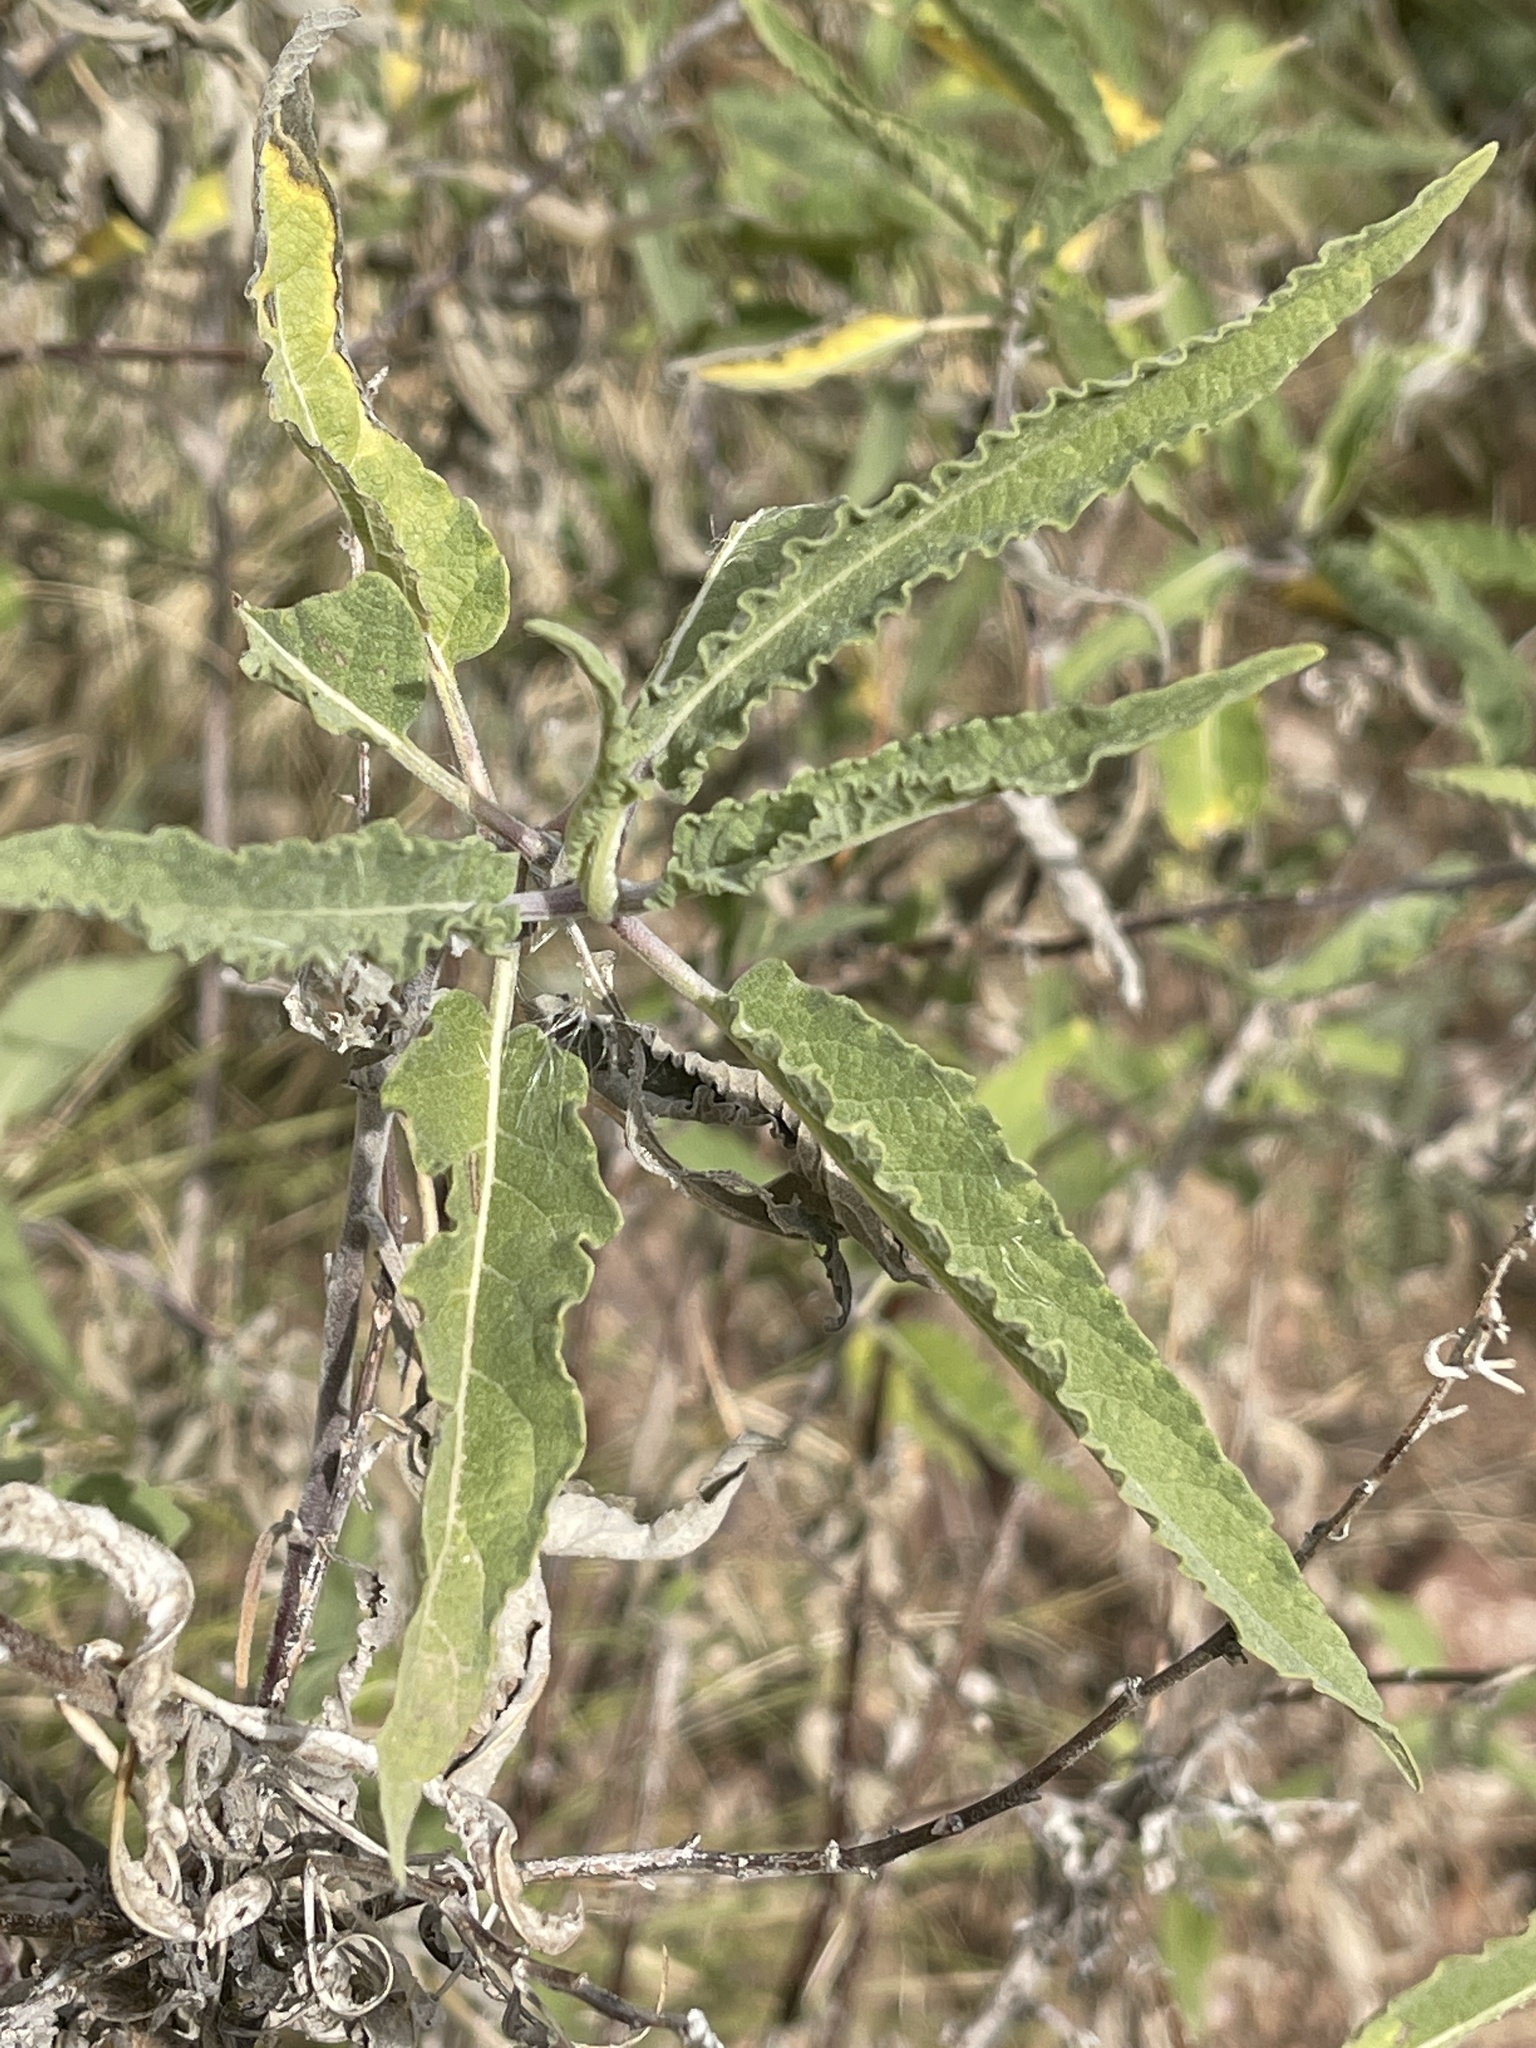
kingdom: Plantae
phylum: Tracheophyta
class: Magnoliopsida
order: Asterales
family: Asteraceae
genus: Ambrosia
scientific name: Ambrosia ambrosioides
